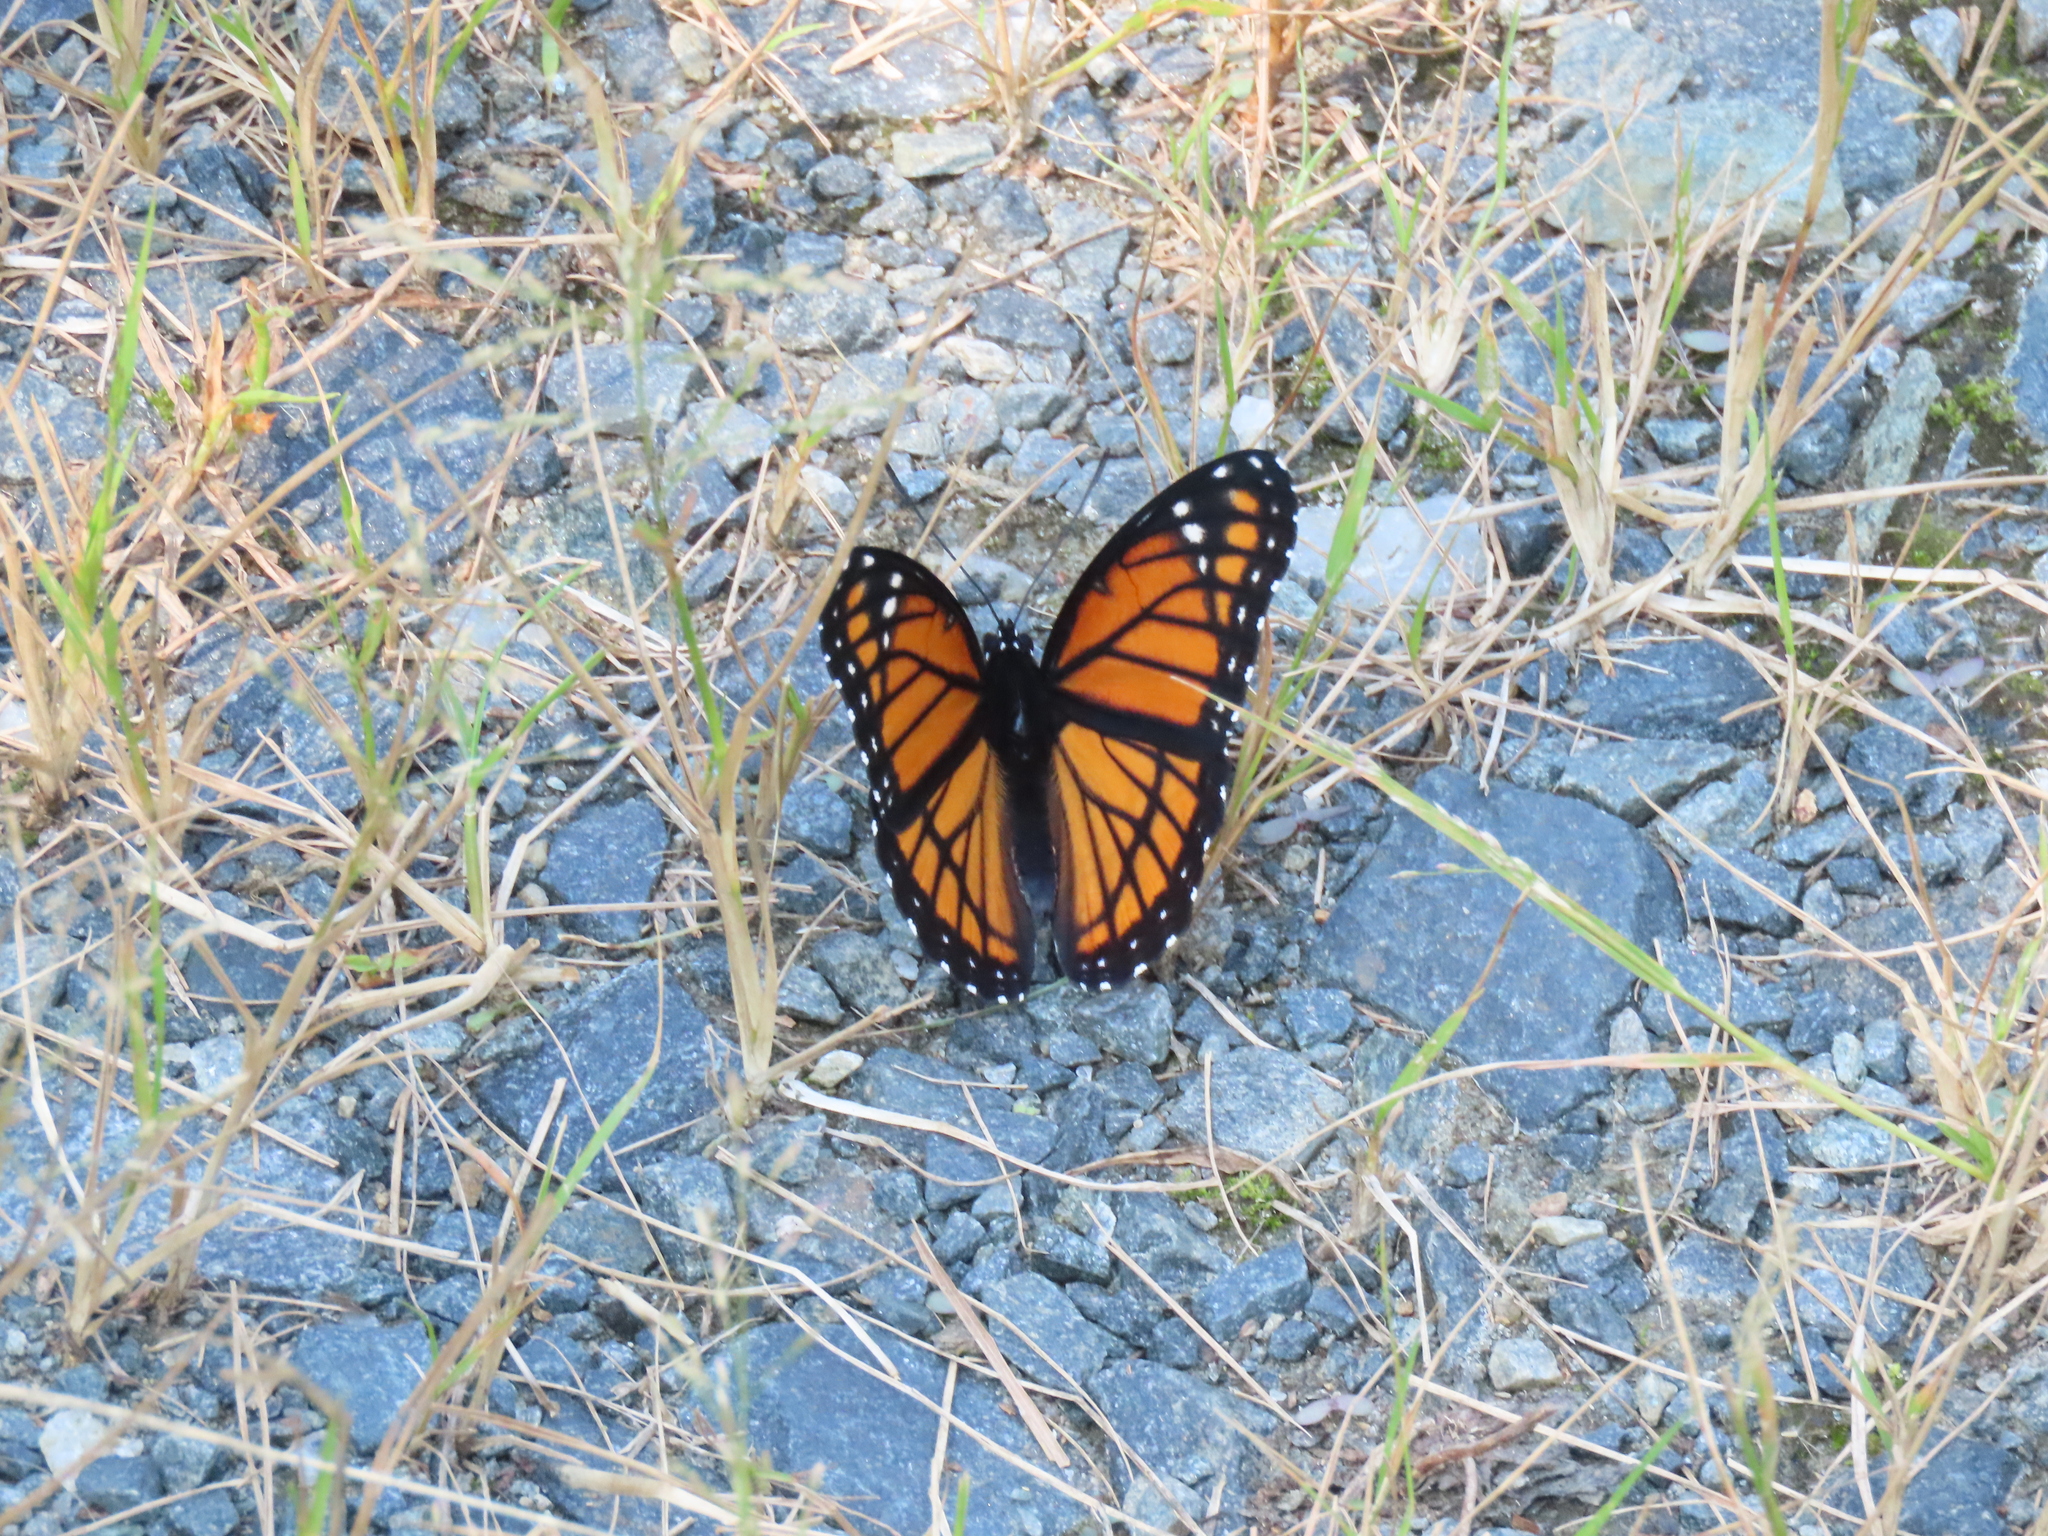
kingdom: Animalia
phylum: Arthropoda
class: Insecta
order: Lepidoptera
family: Nymphalidae
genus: Limenitis
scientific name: Limenitis archippus
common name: Viceroy
